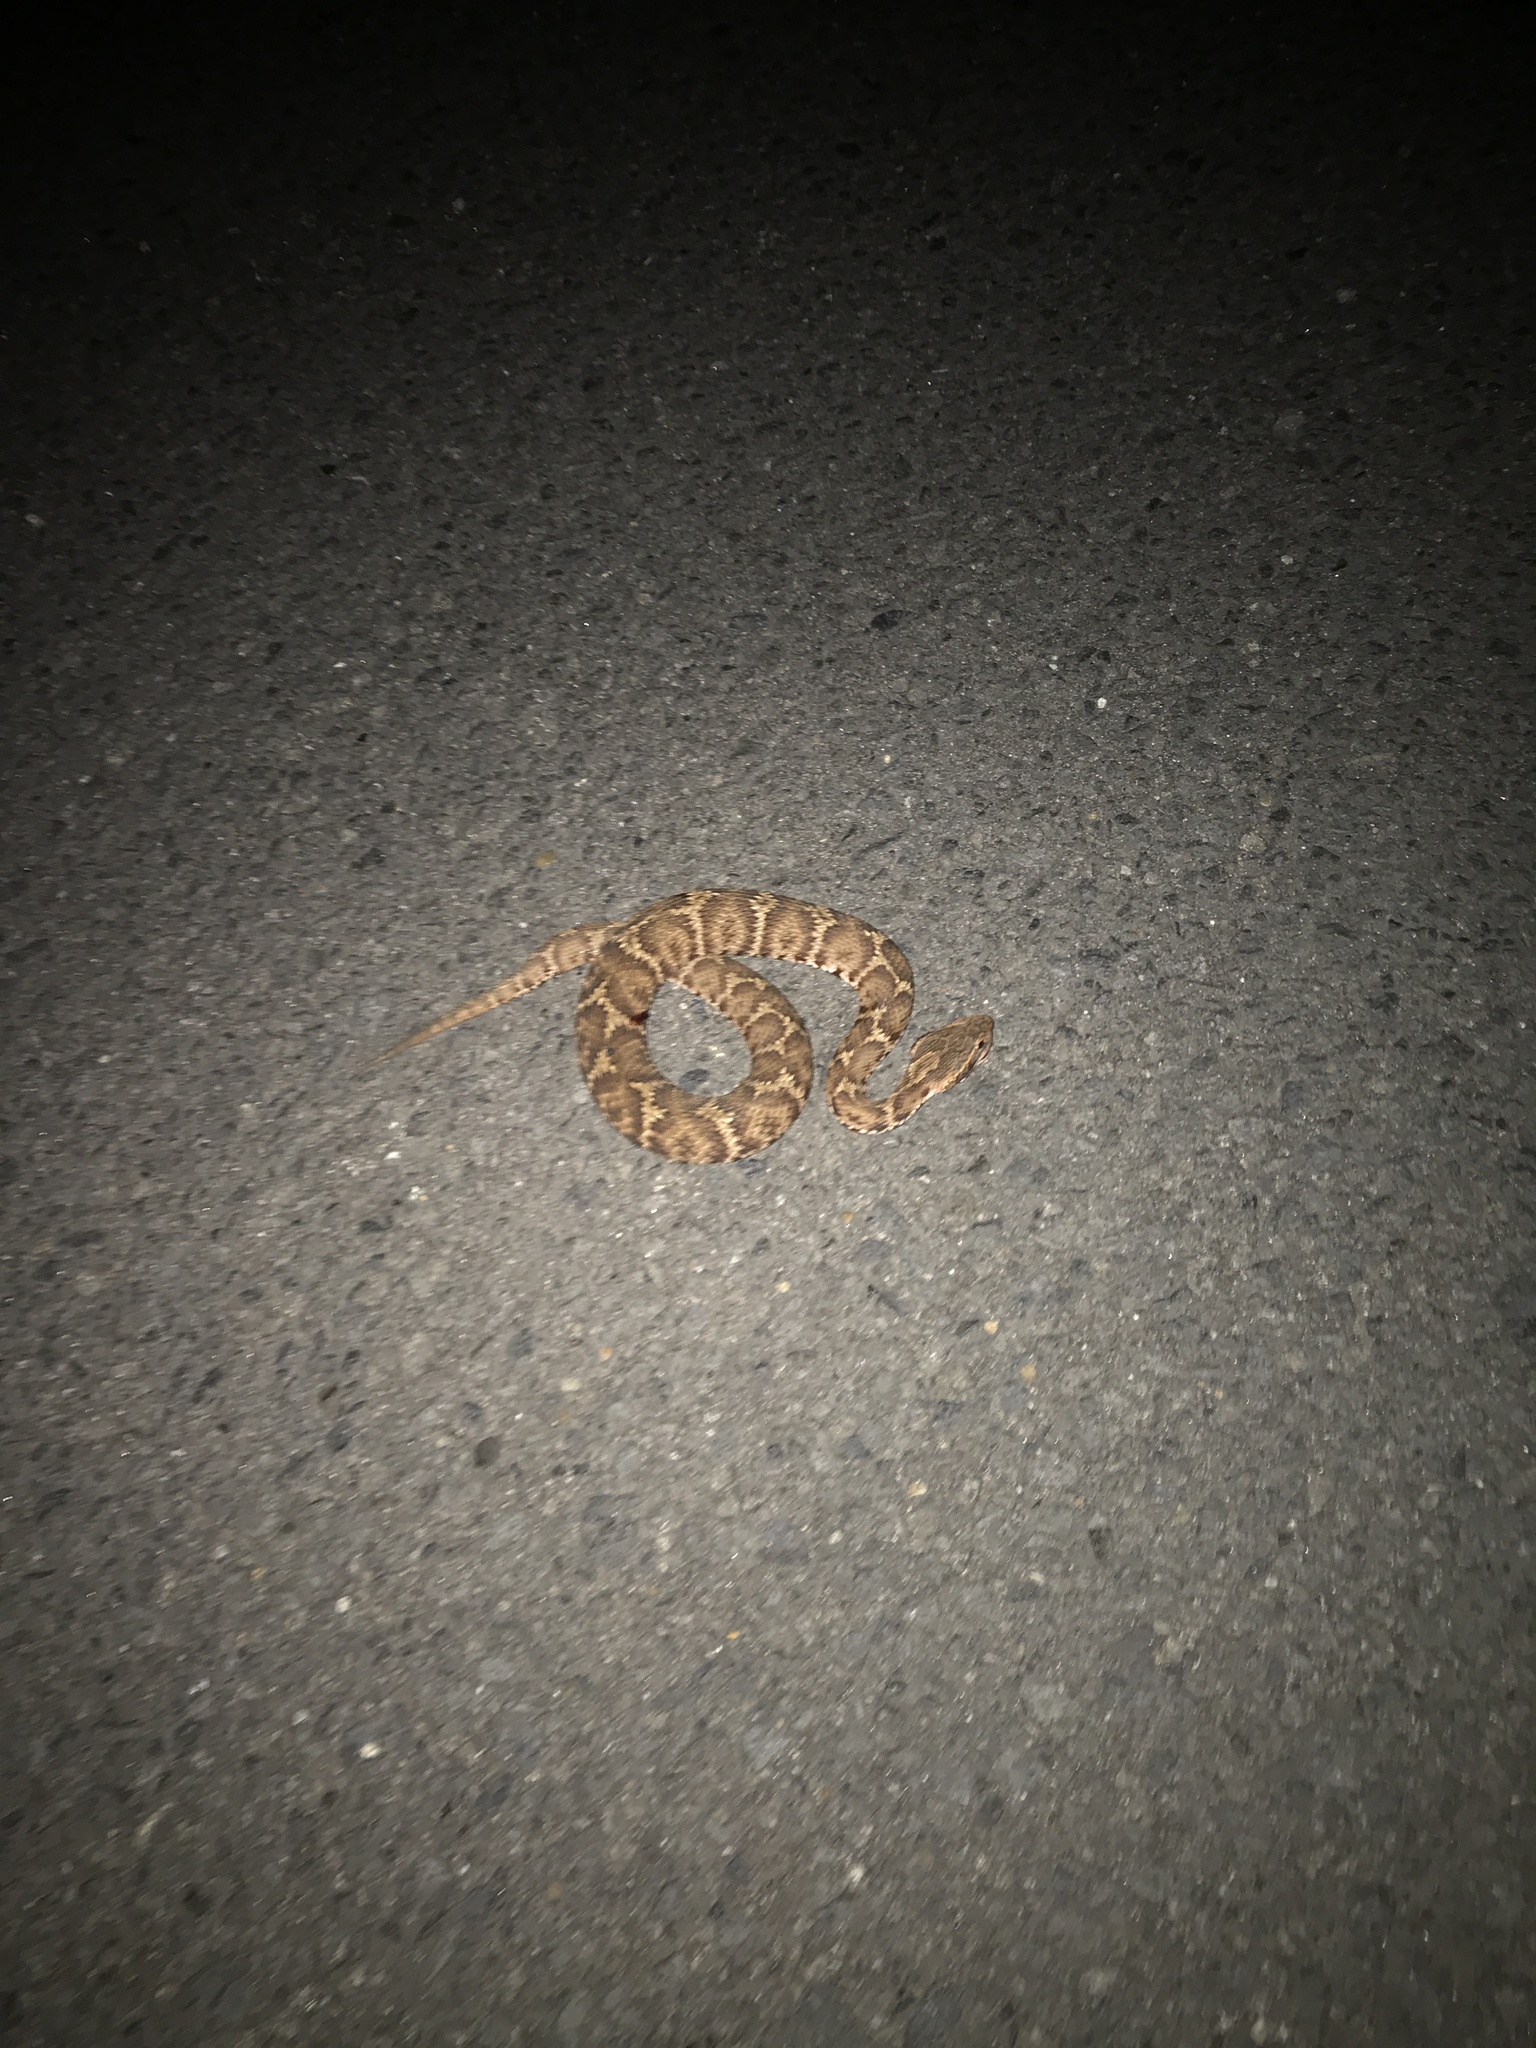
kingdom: Animalia
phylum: Chordata
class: Squamata
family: Viperidae
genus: Gloydius
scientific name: Gloydius blomhoffii
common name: Mamushi
